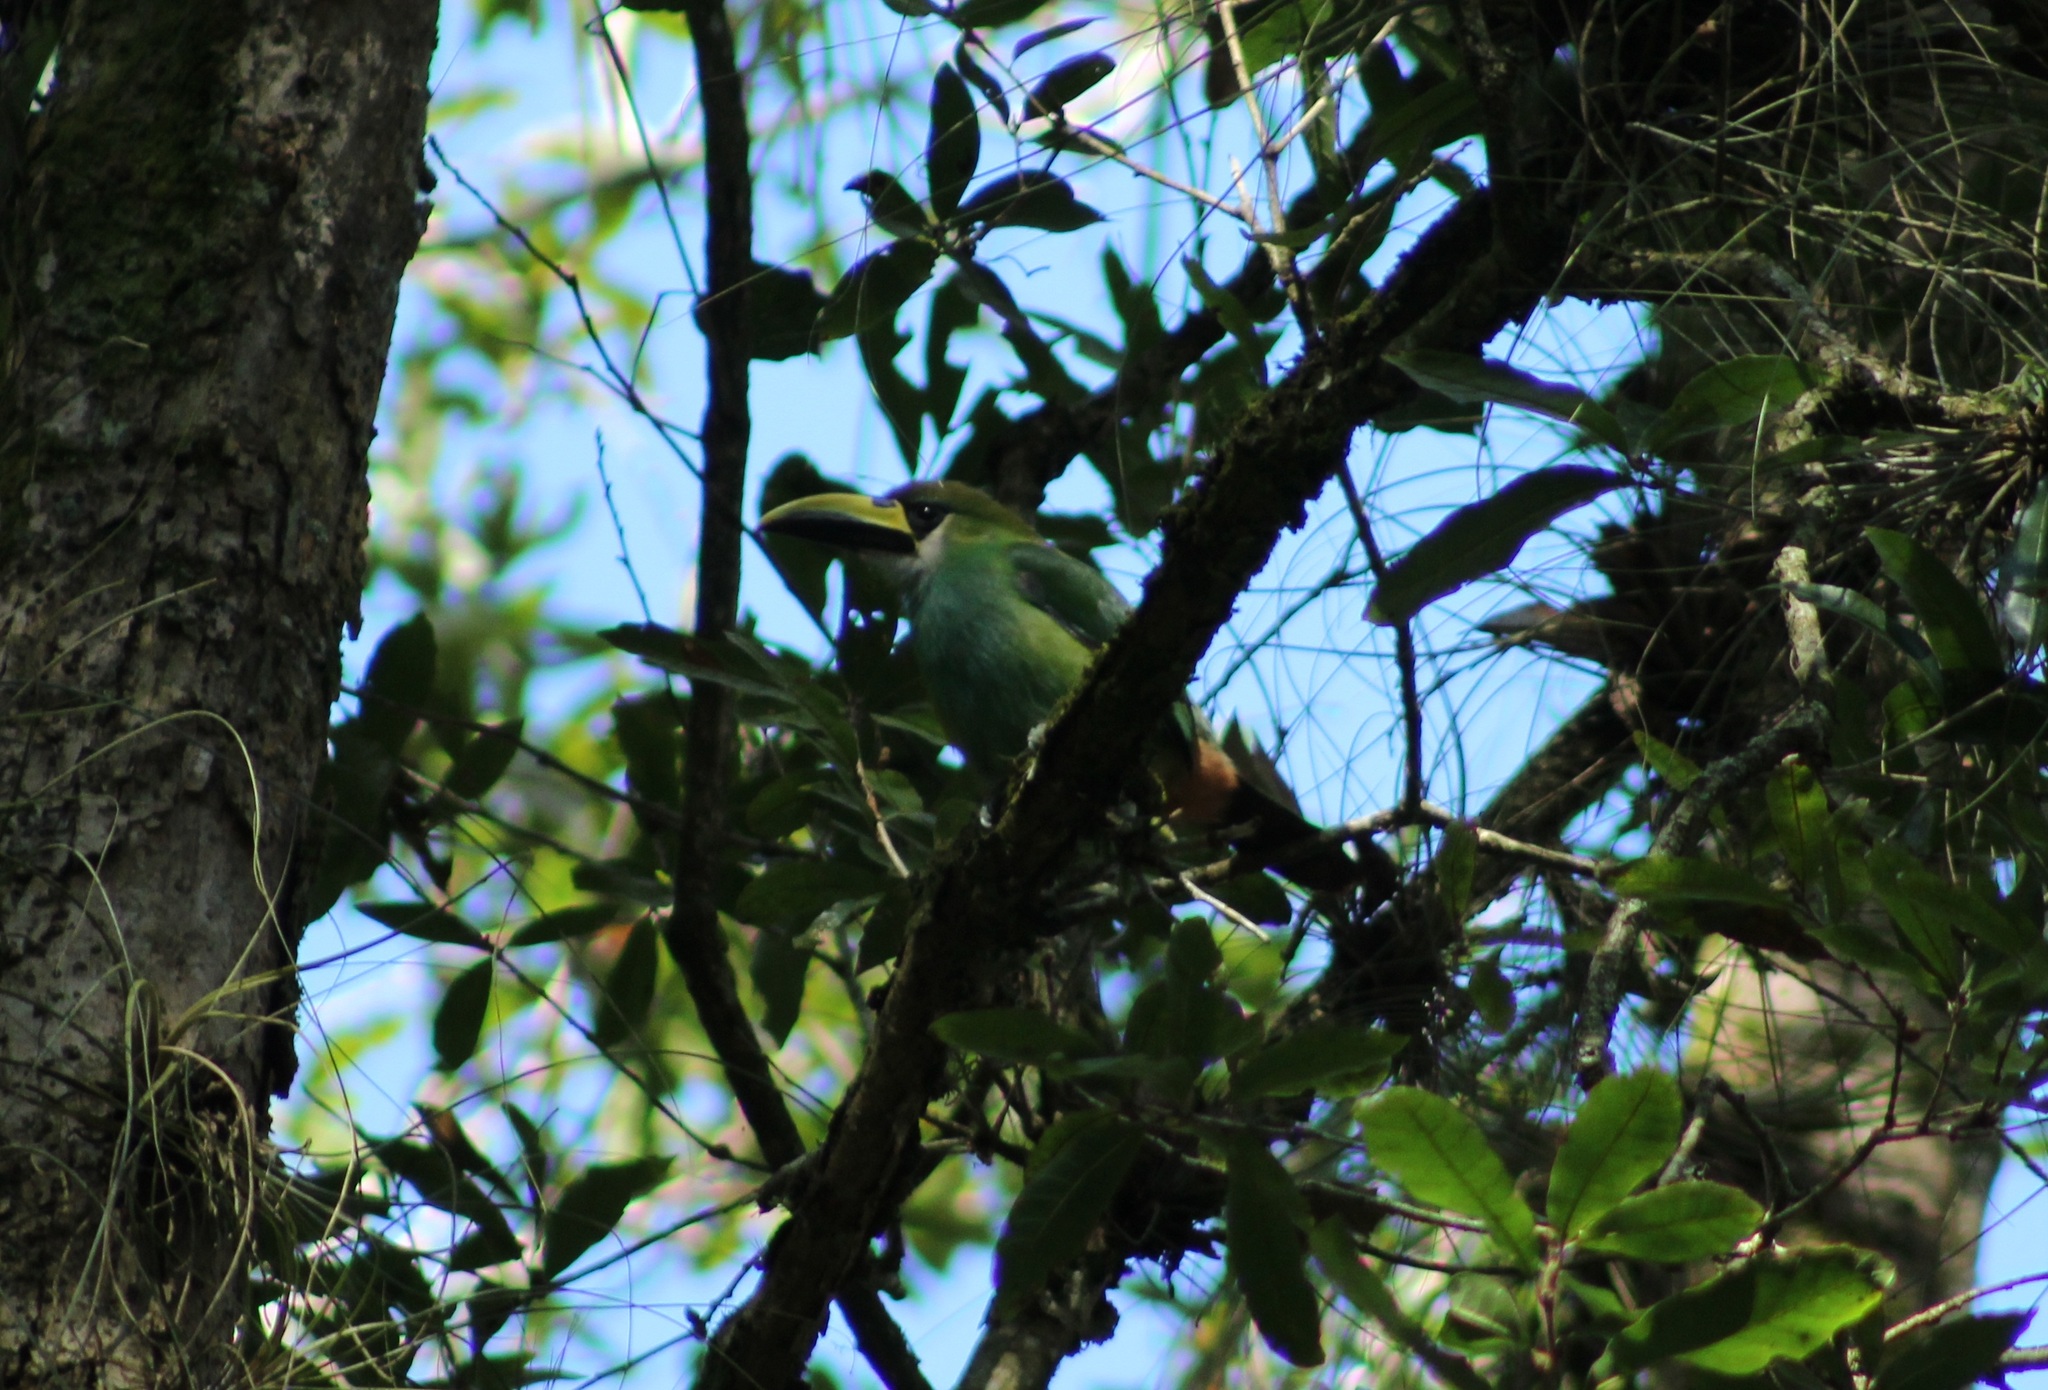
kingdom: Animalia
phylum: Chordata
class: Aves
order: Piciformes
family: Ramphastidae
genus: Aulacorhynchus
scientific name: Aulacorhynchus prasinus
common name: Emerald toucanet
